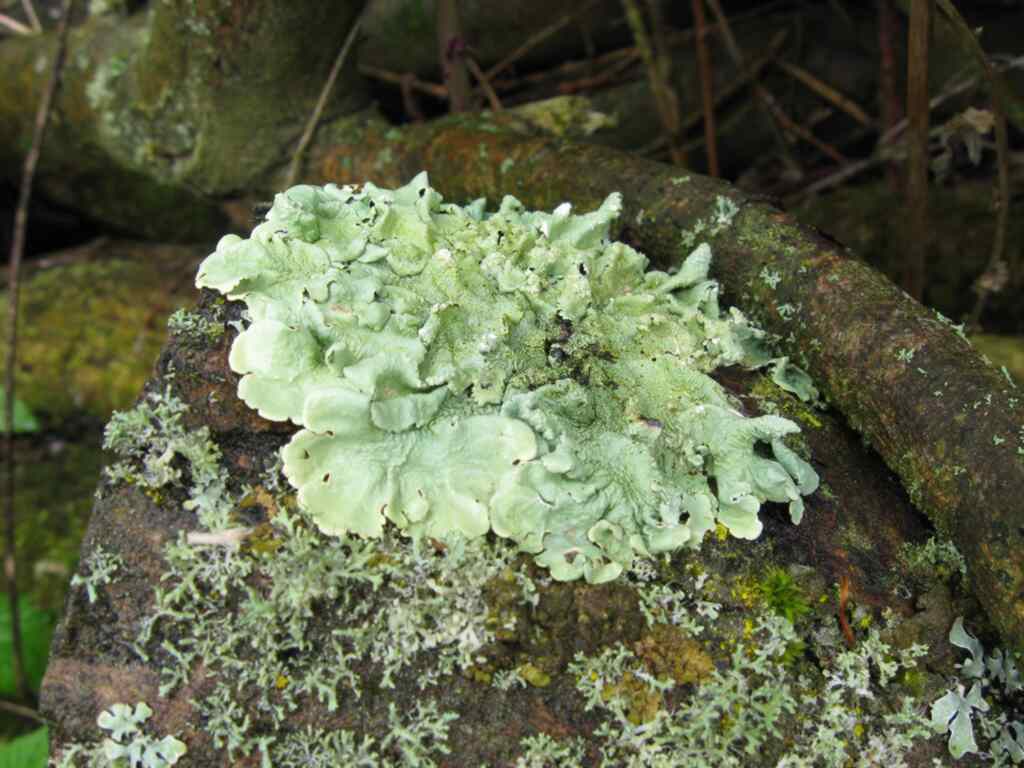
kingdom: Fungi
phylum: Ascomycota
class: Lecanoromycetes
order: Lecanorales
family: Parmeliaceae
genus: Flavoparmelia
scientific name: Flavoparmelia caperata
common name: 40-mile per hour lichen
